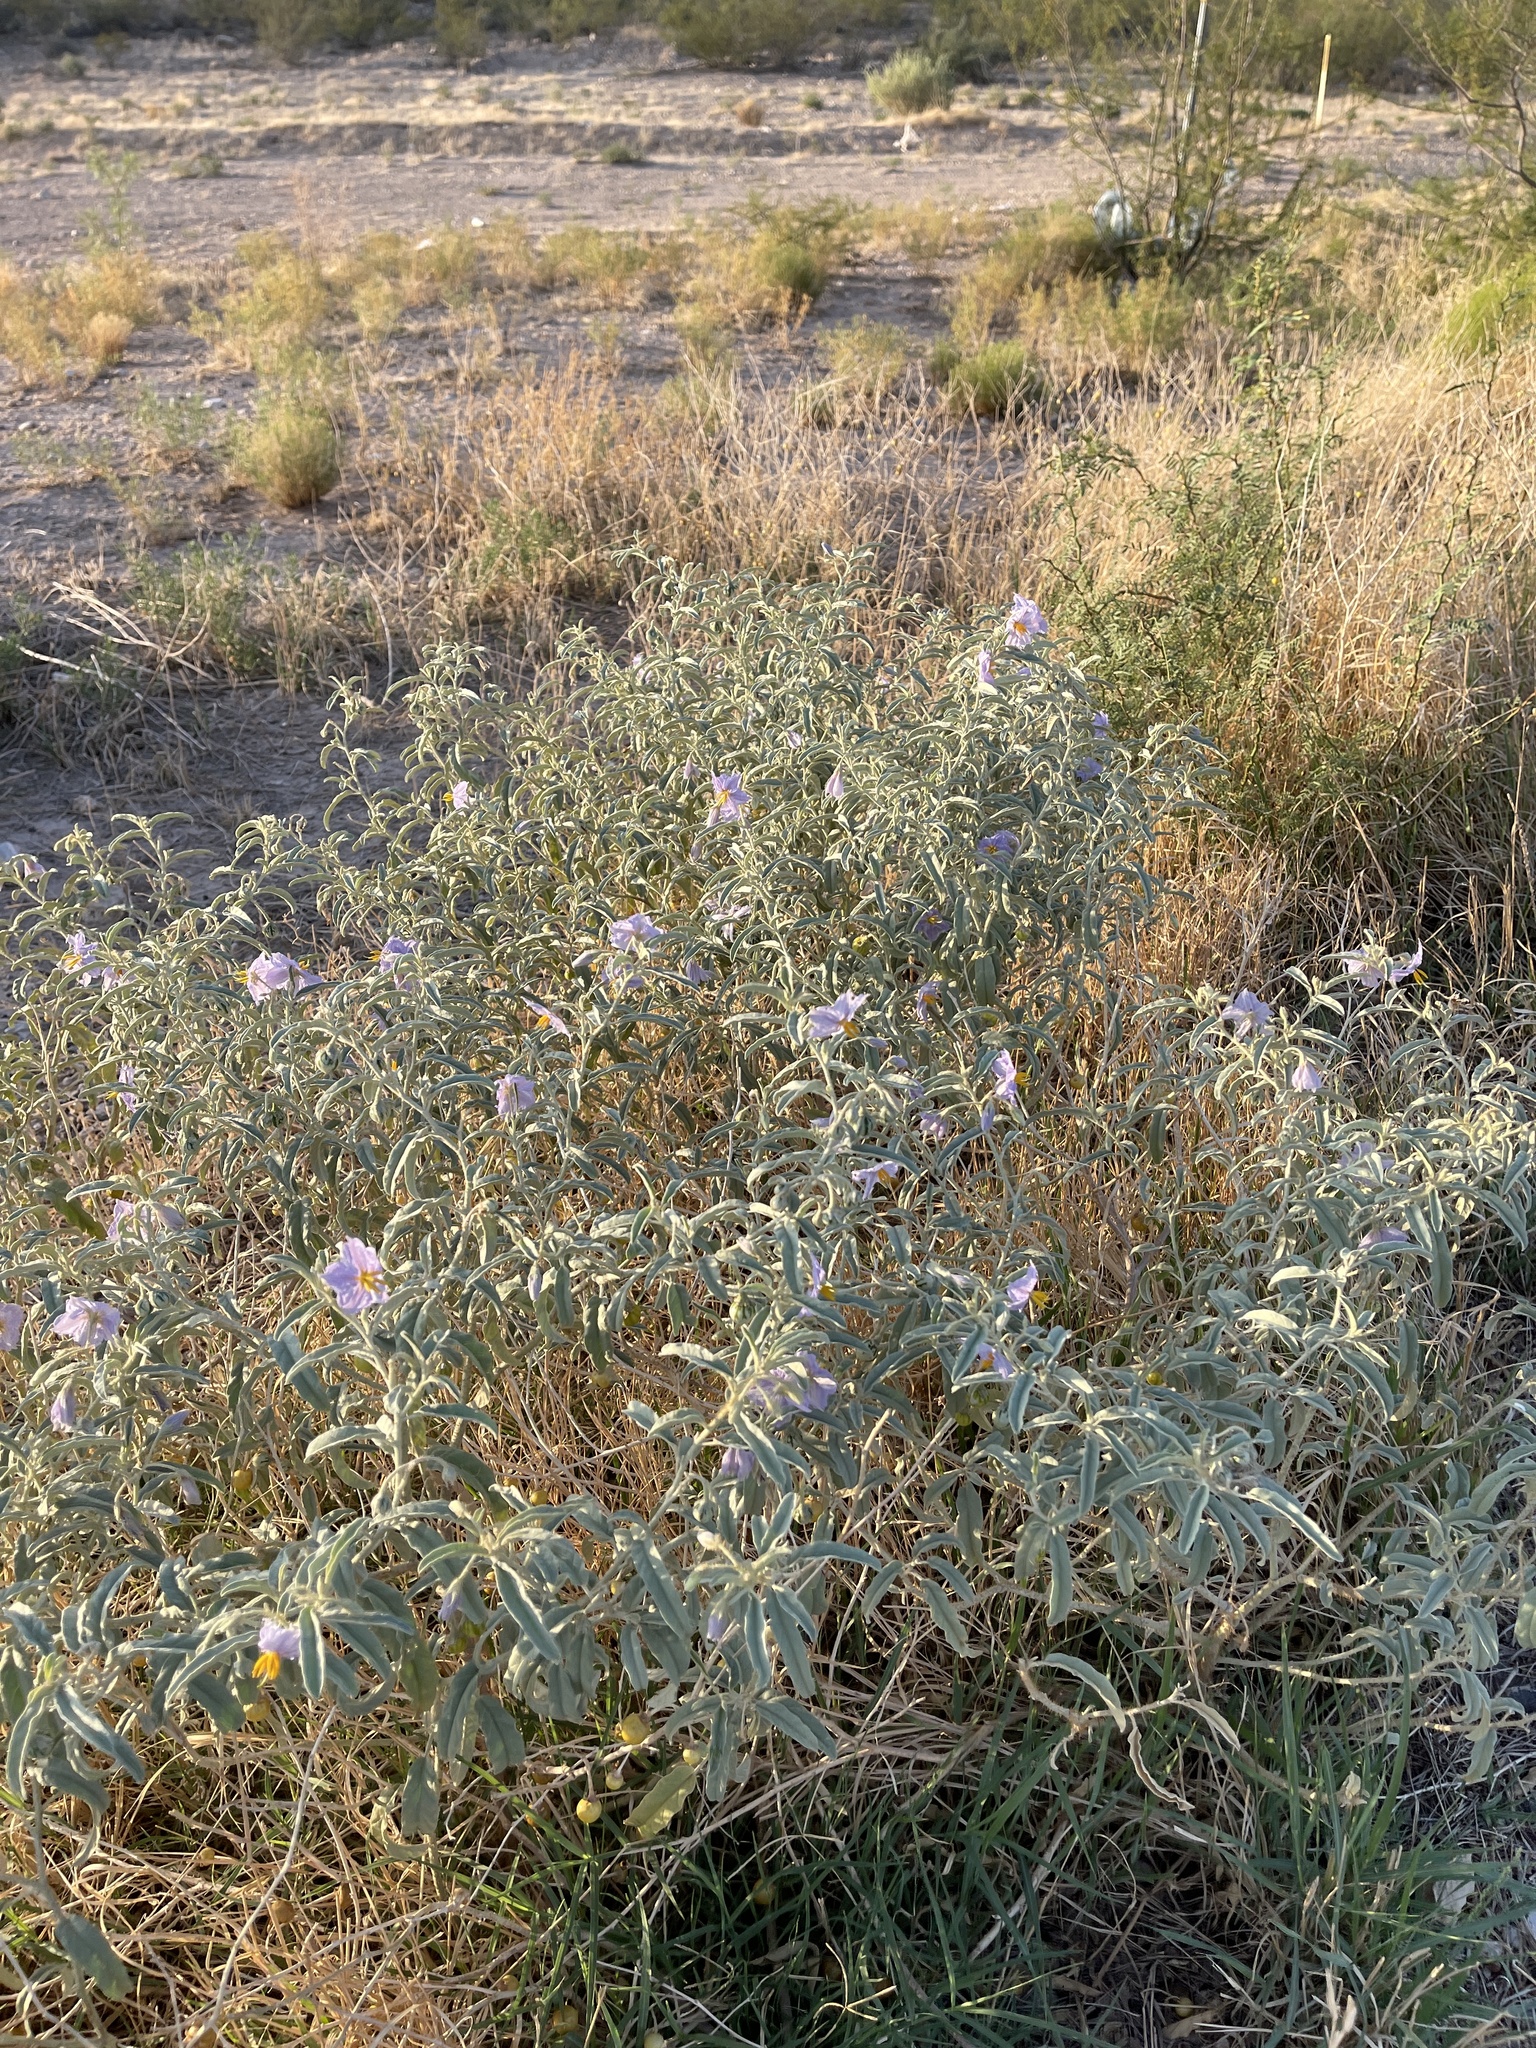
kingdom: Plantae
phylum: Tracheophyta
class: Magnoliopsida
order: Solanales
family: Solanaceae
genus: Solanum
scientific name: Solanum elaeagnifolium
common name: Silverleaf nightshade
